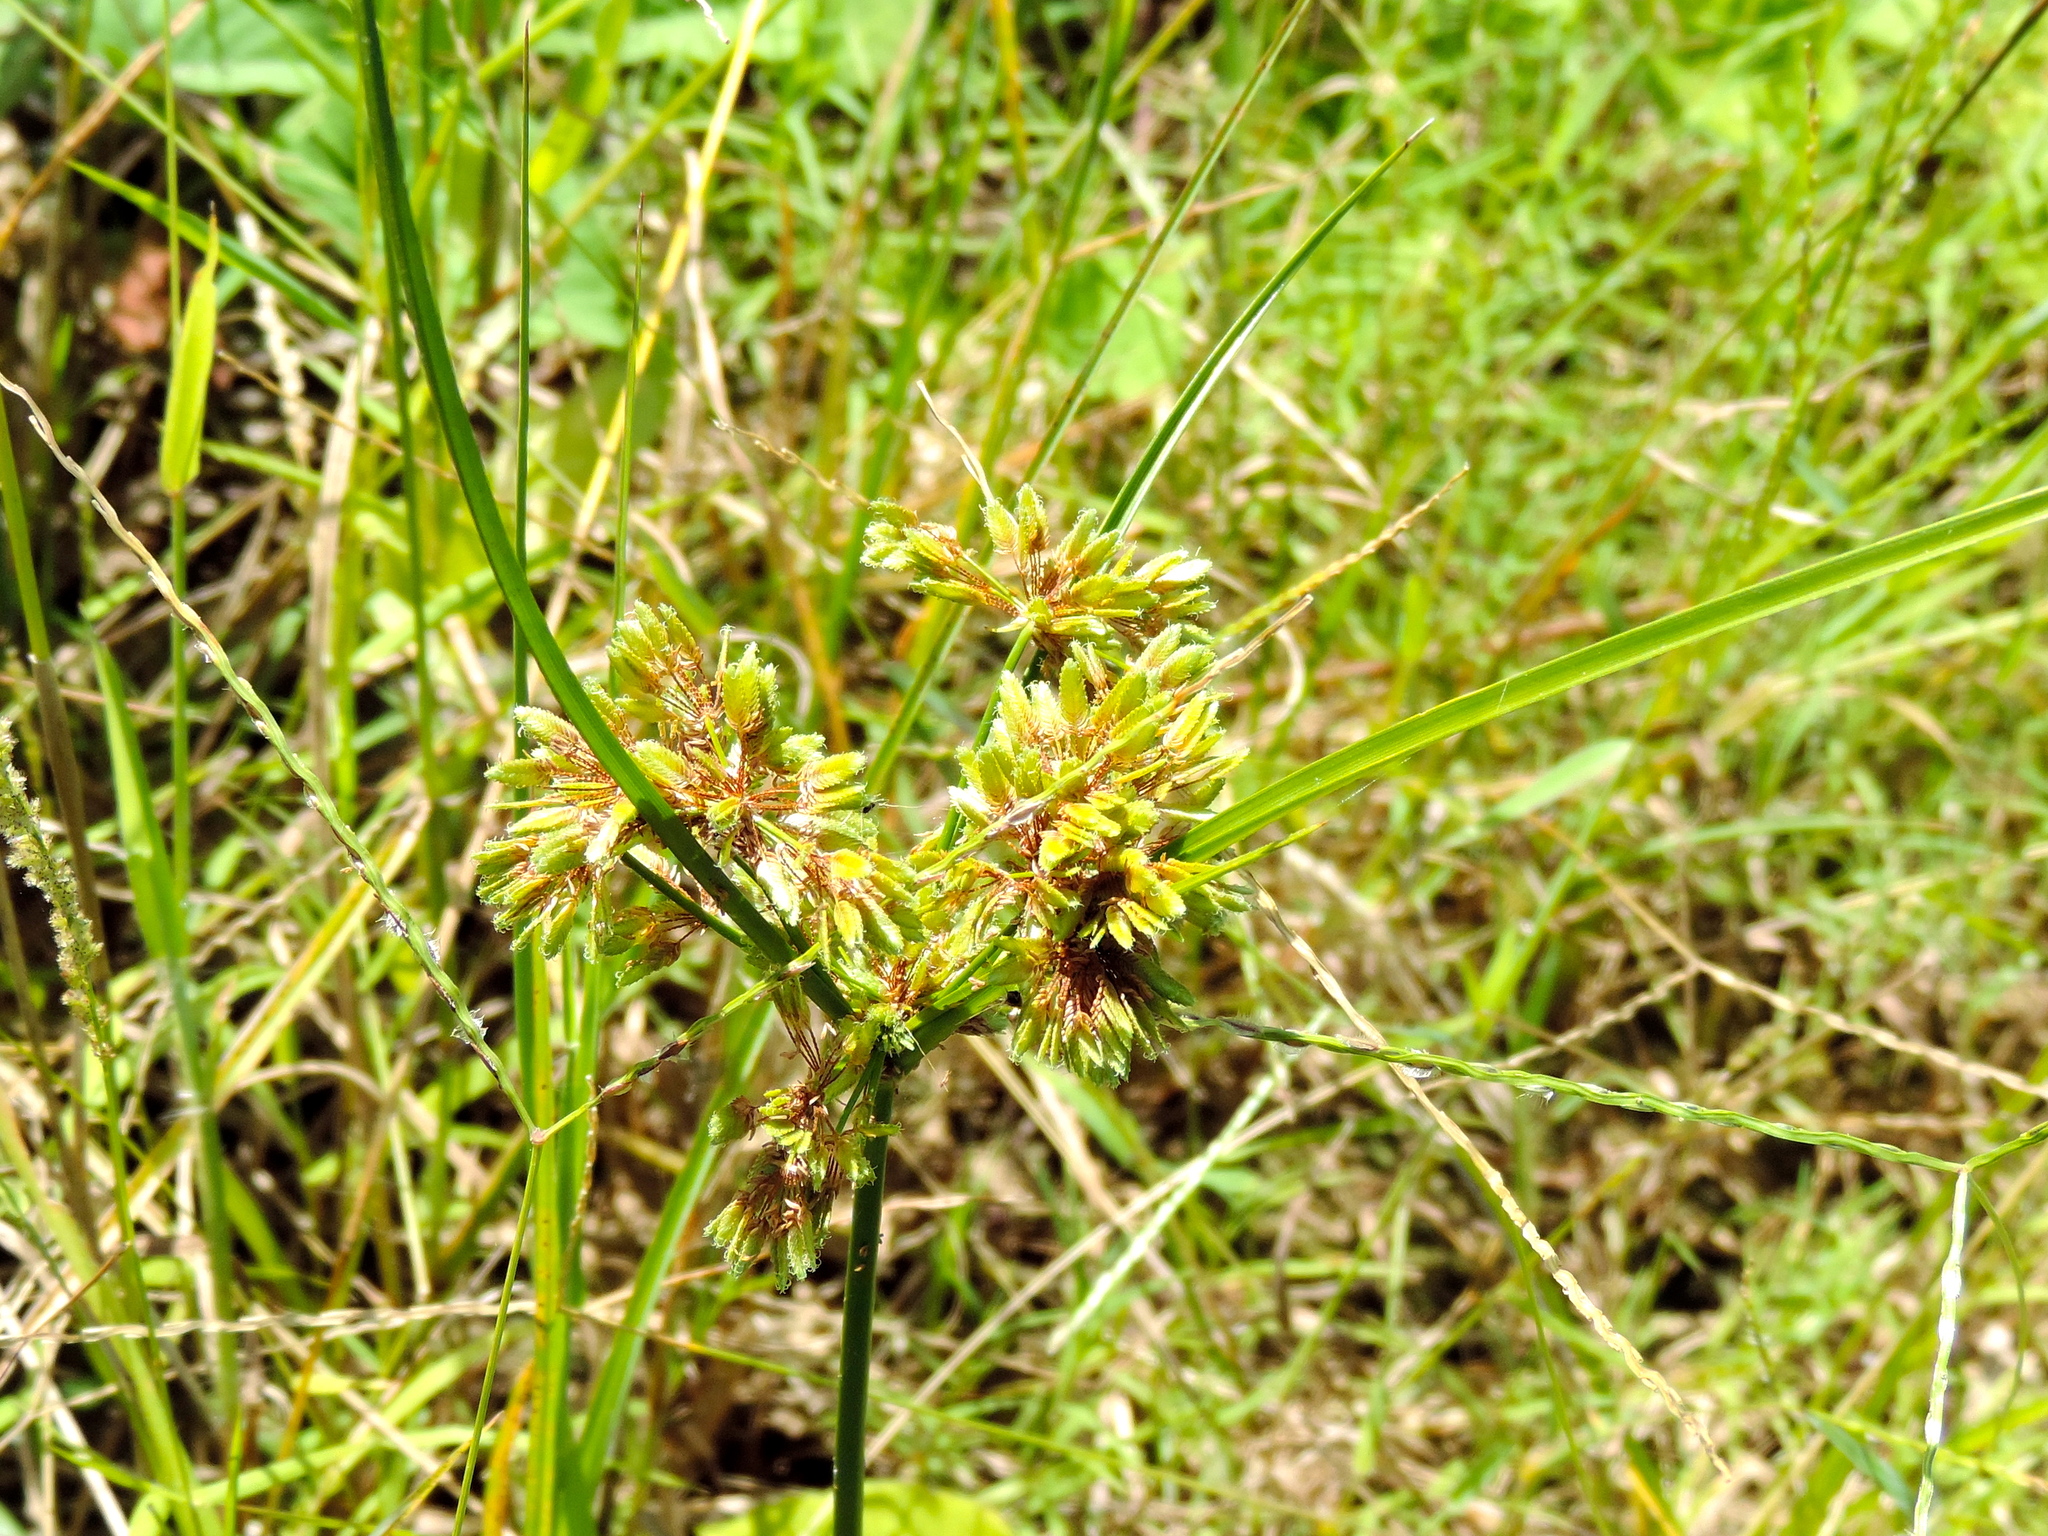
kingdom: Plantae
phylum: Tracheophyta
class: Liliopsida
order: Poales
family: Cyperaceae
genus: Cyperus
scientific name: Cyperus surinamensis
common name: Tropical flat sedge
